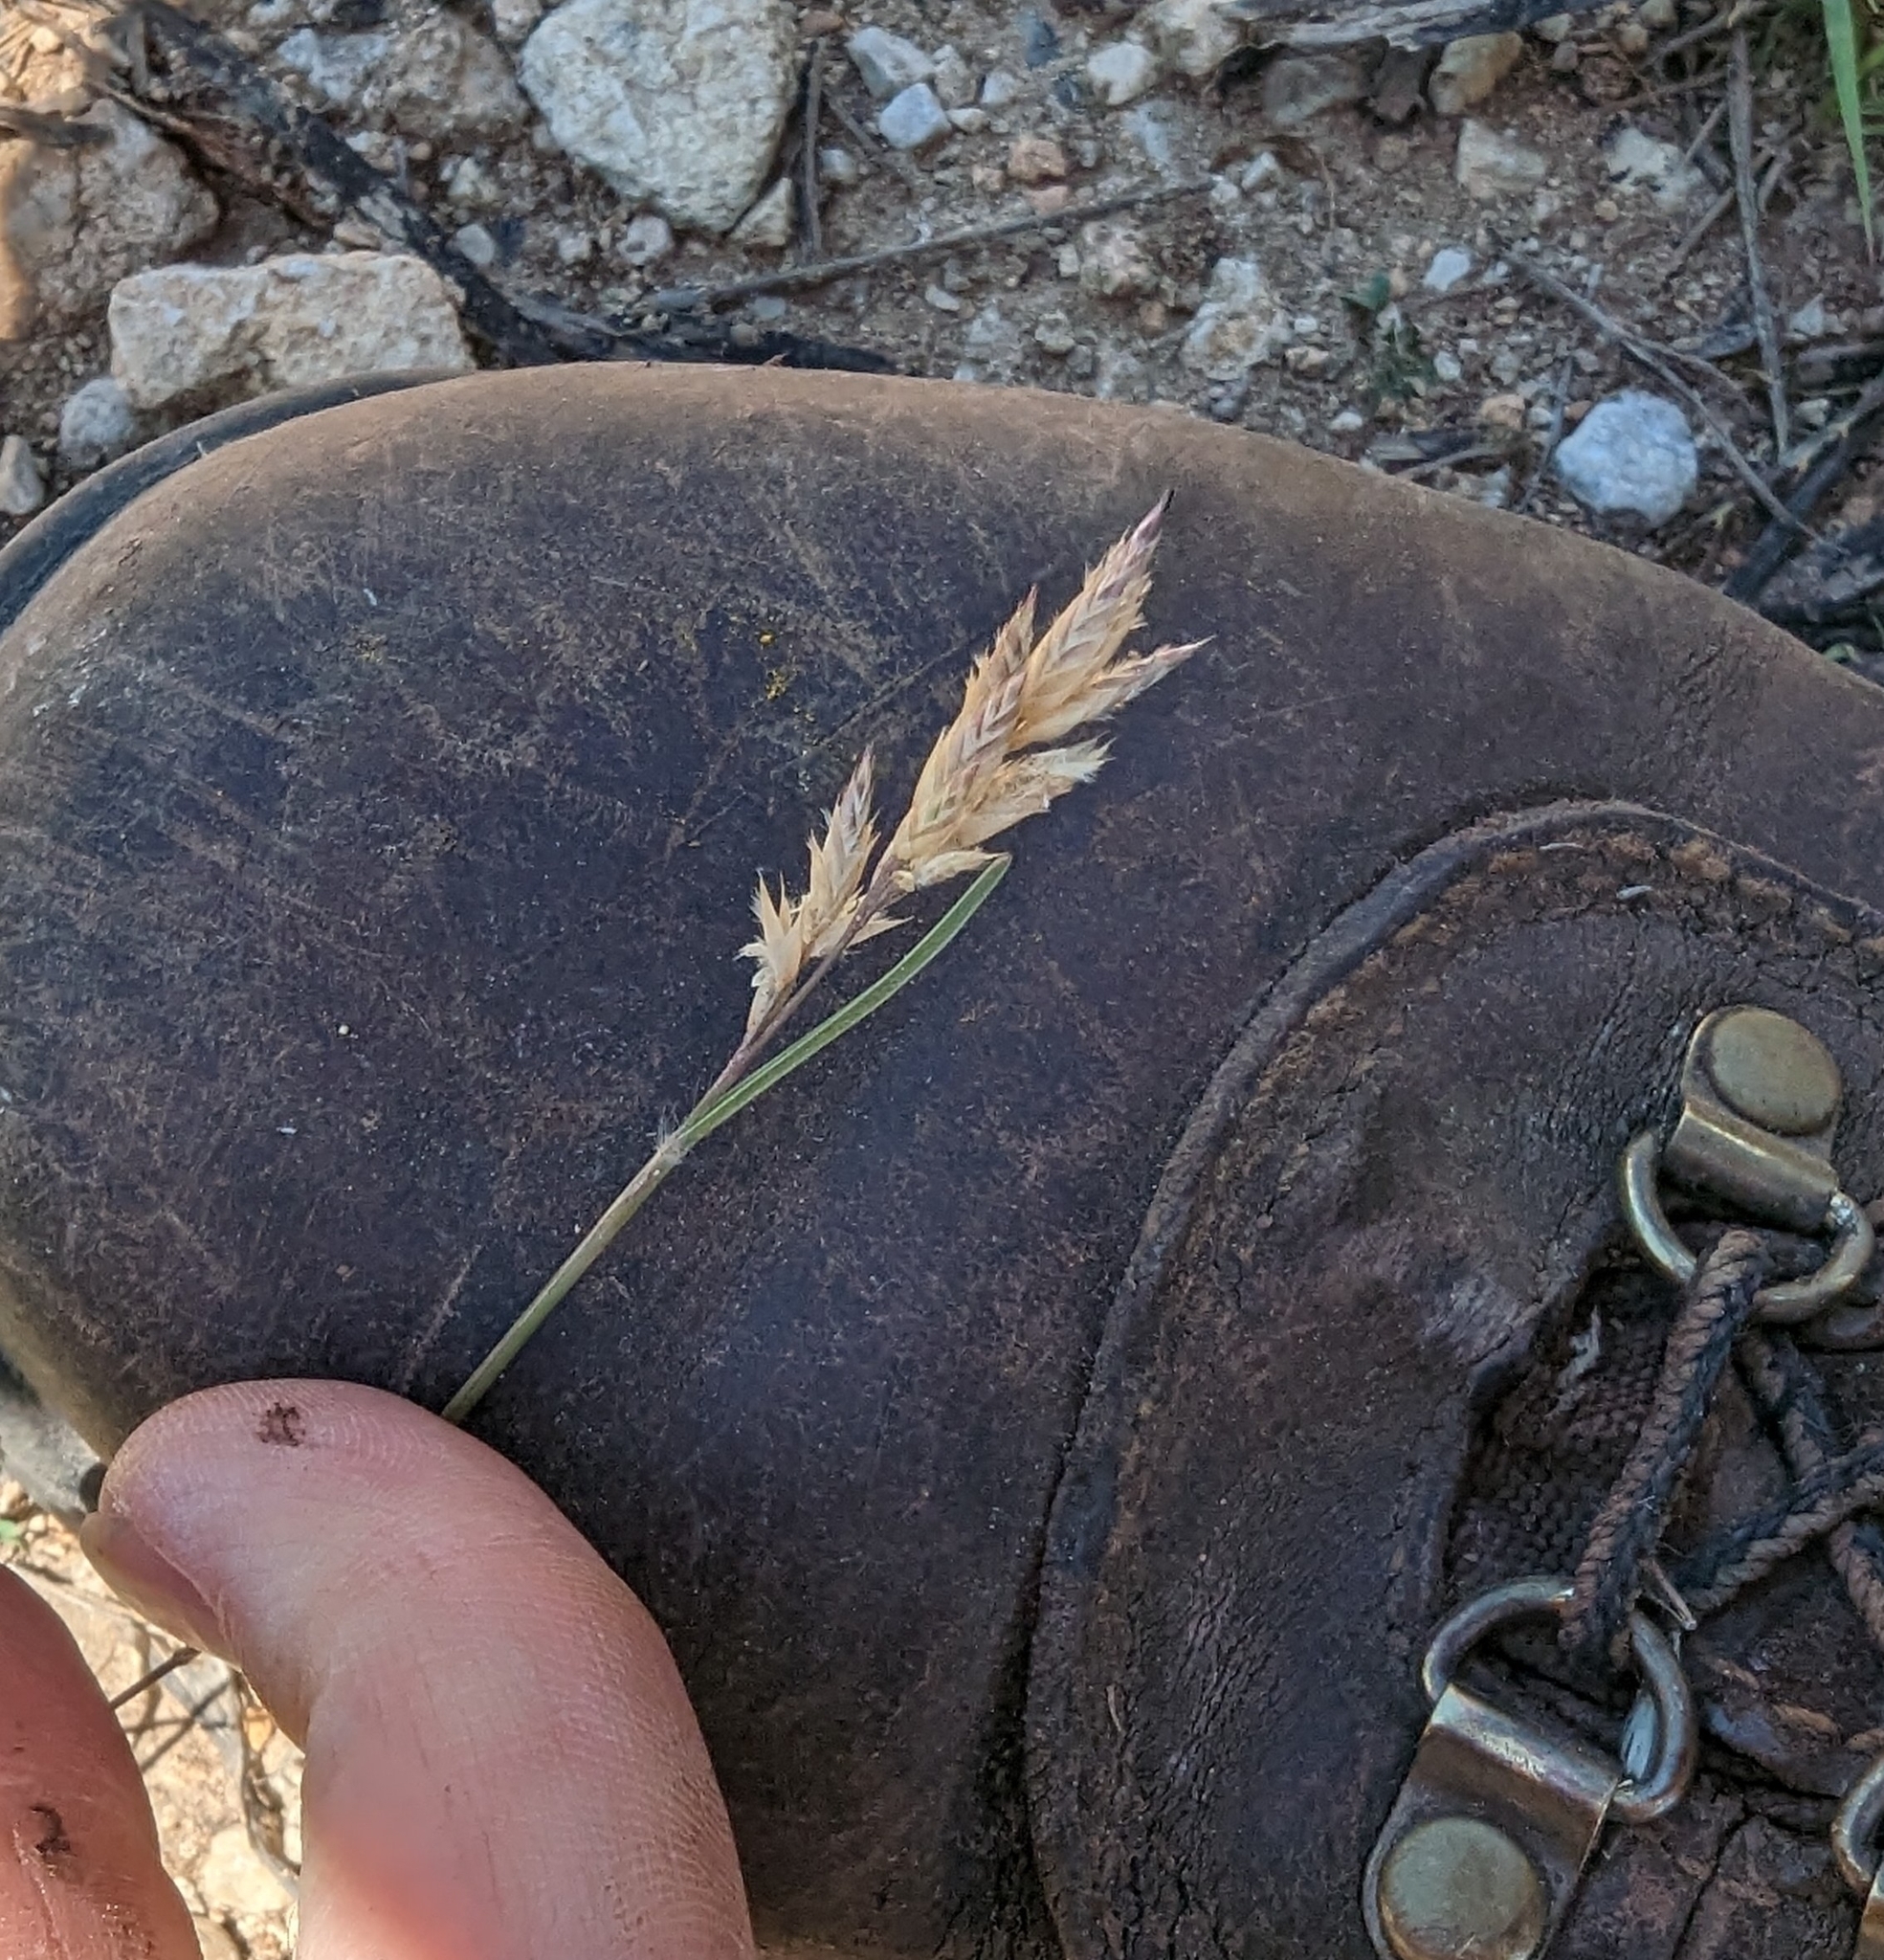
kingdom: Plantae
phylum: Tracheophyta
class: Liliopsida
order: Poales
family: Poaceae
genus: Erioneuron
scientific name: Erioneuron pilosum
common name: Hairy woolly grass
